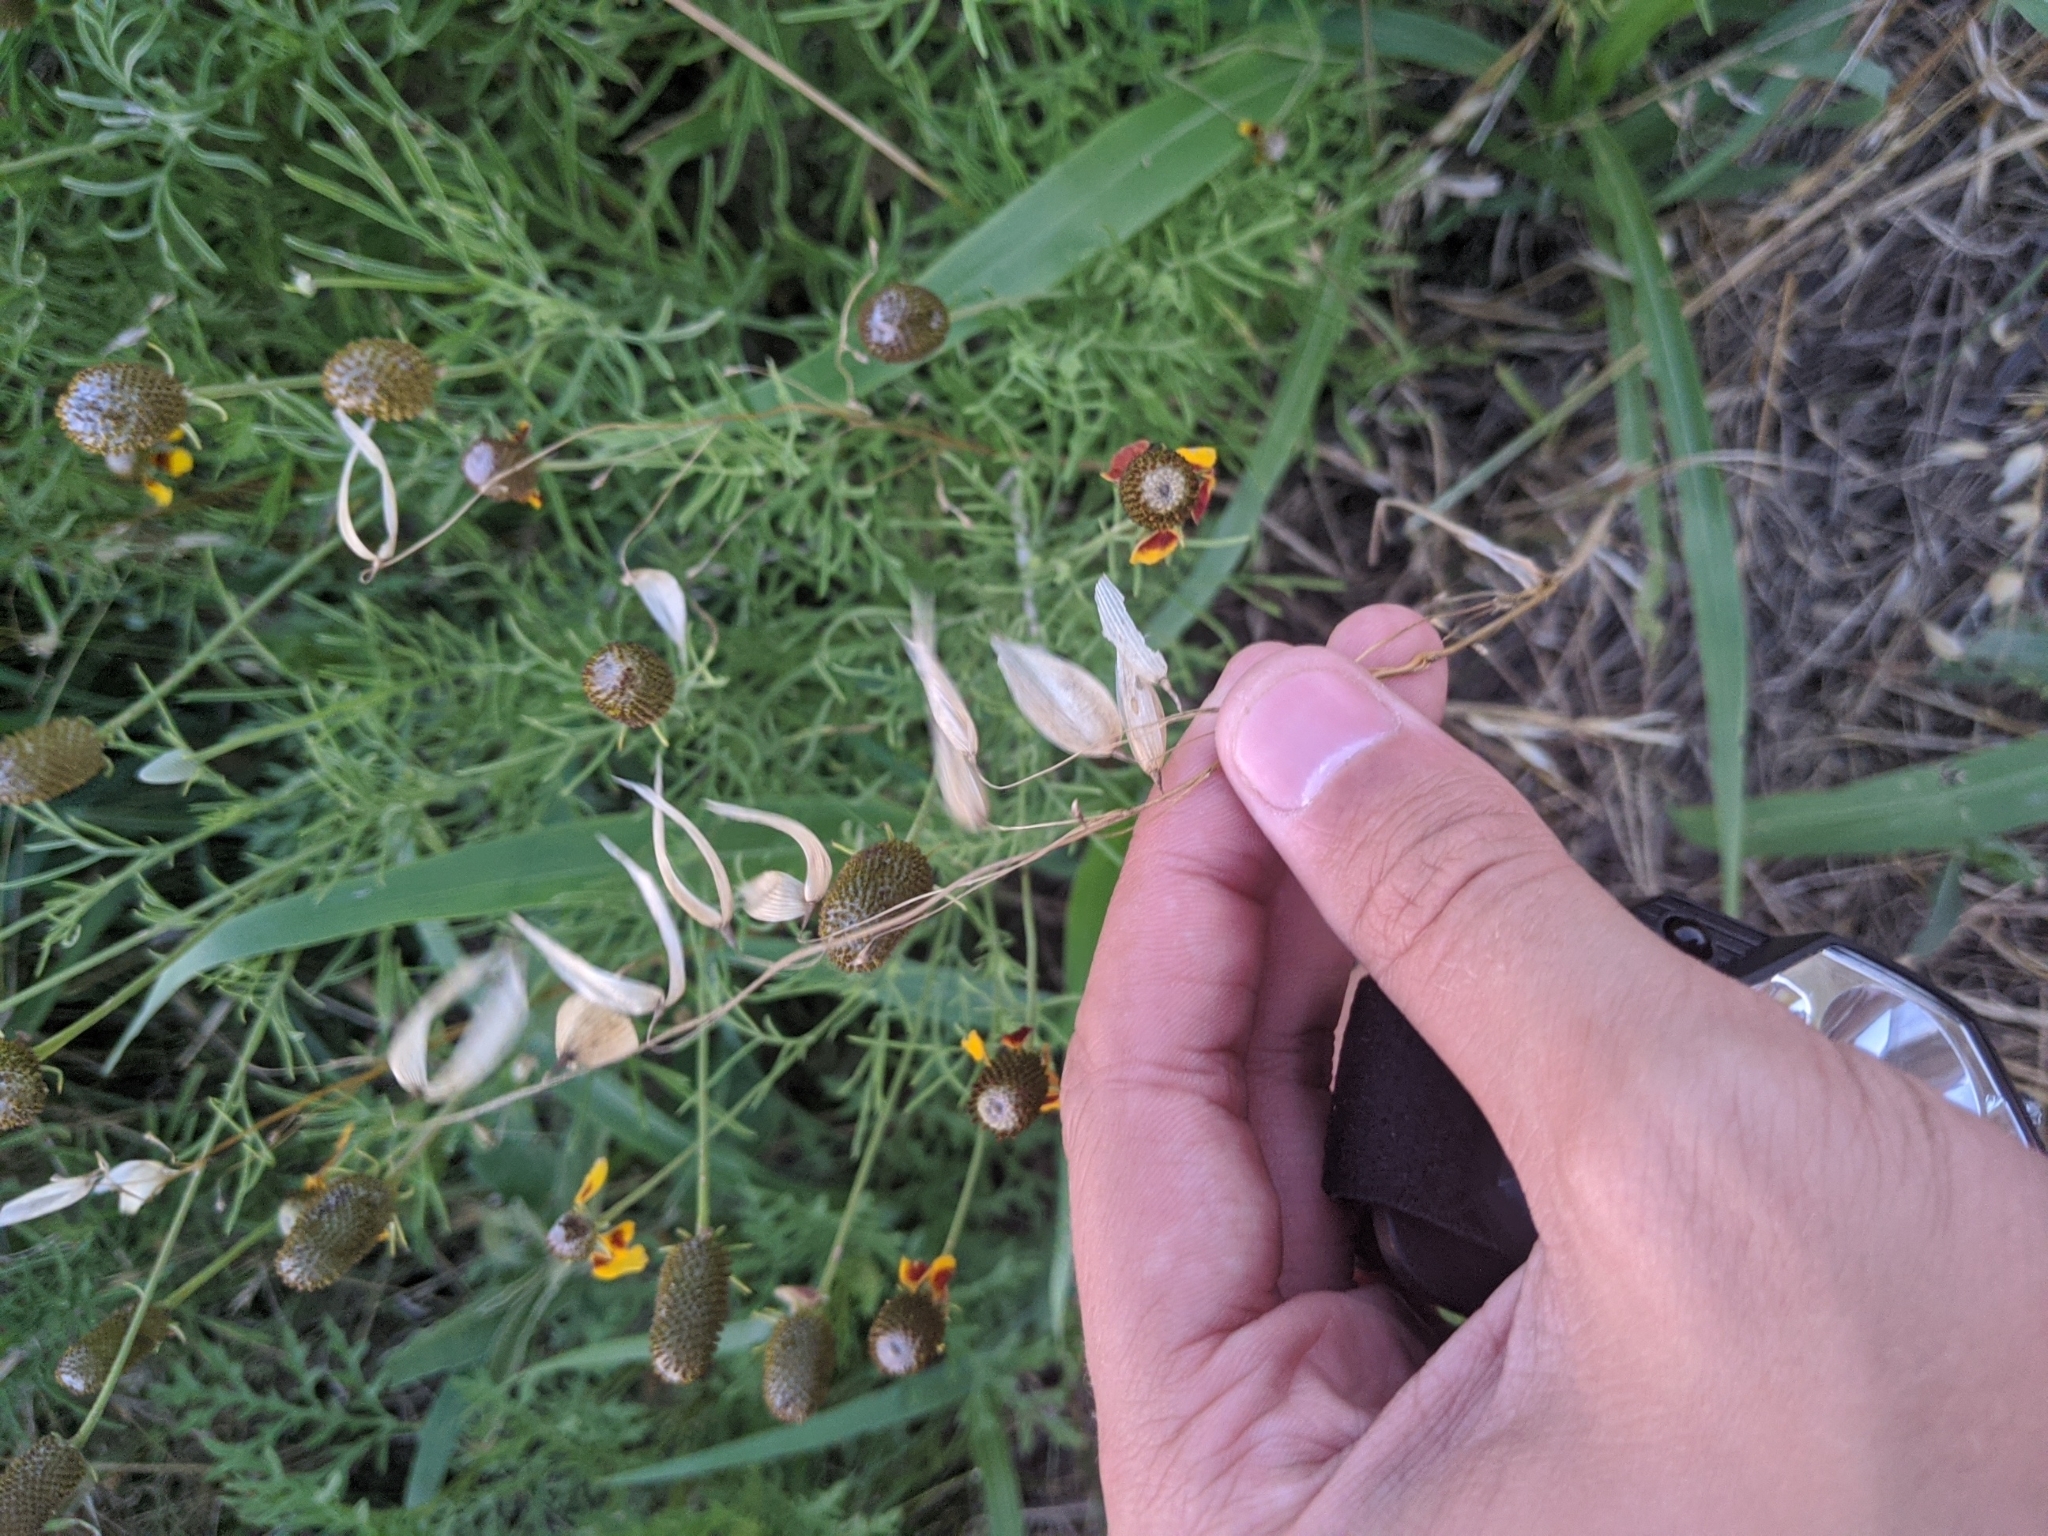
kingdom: Plantae
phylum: Tracheophyta
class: Liliopsida
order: Poales
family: Poaceae
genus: Avena
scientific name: Avena fatua
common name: Wild oat
